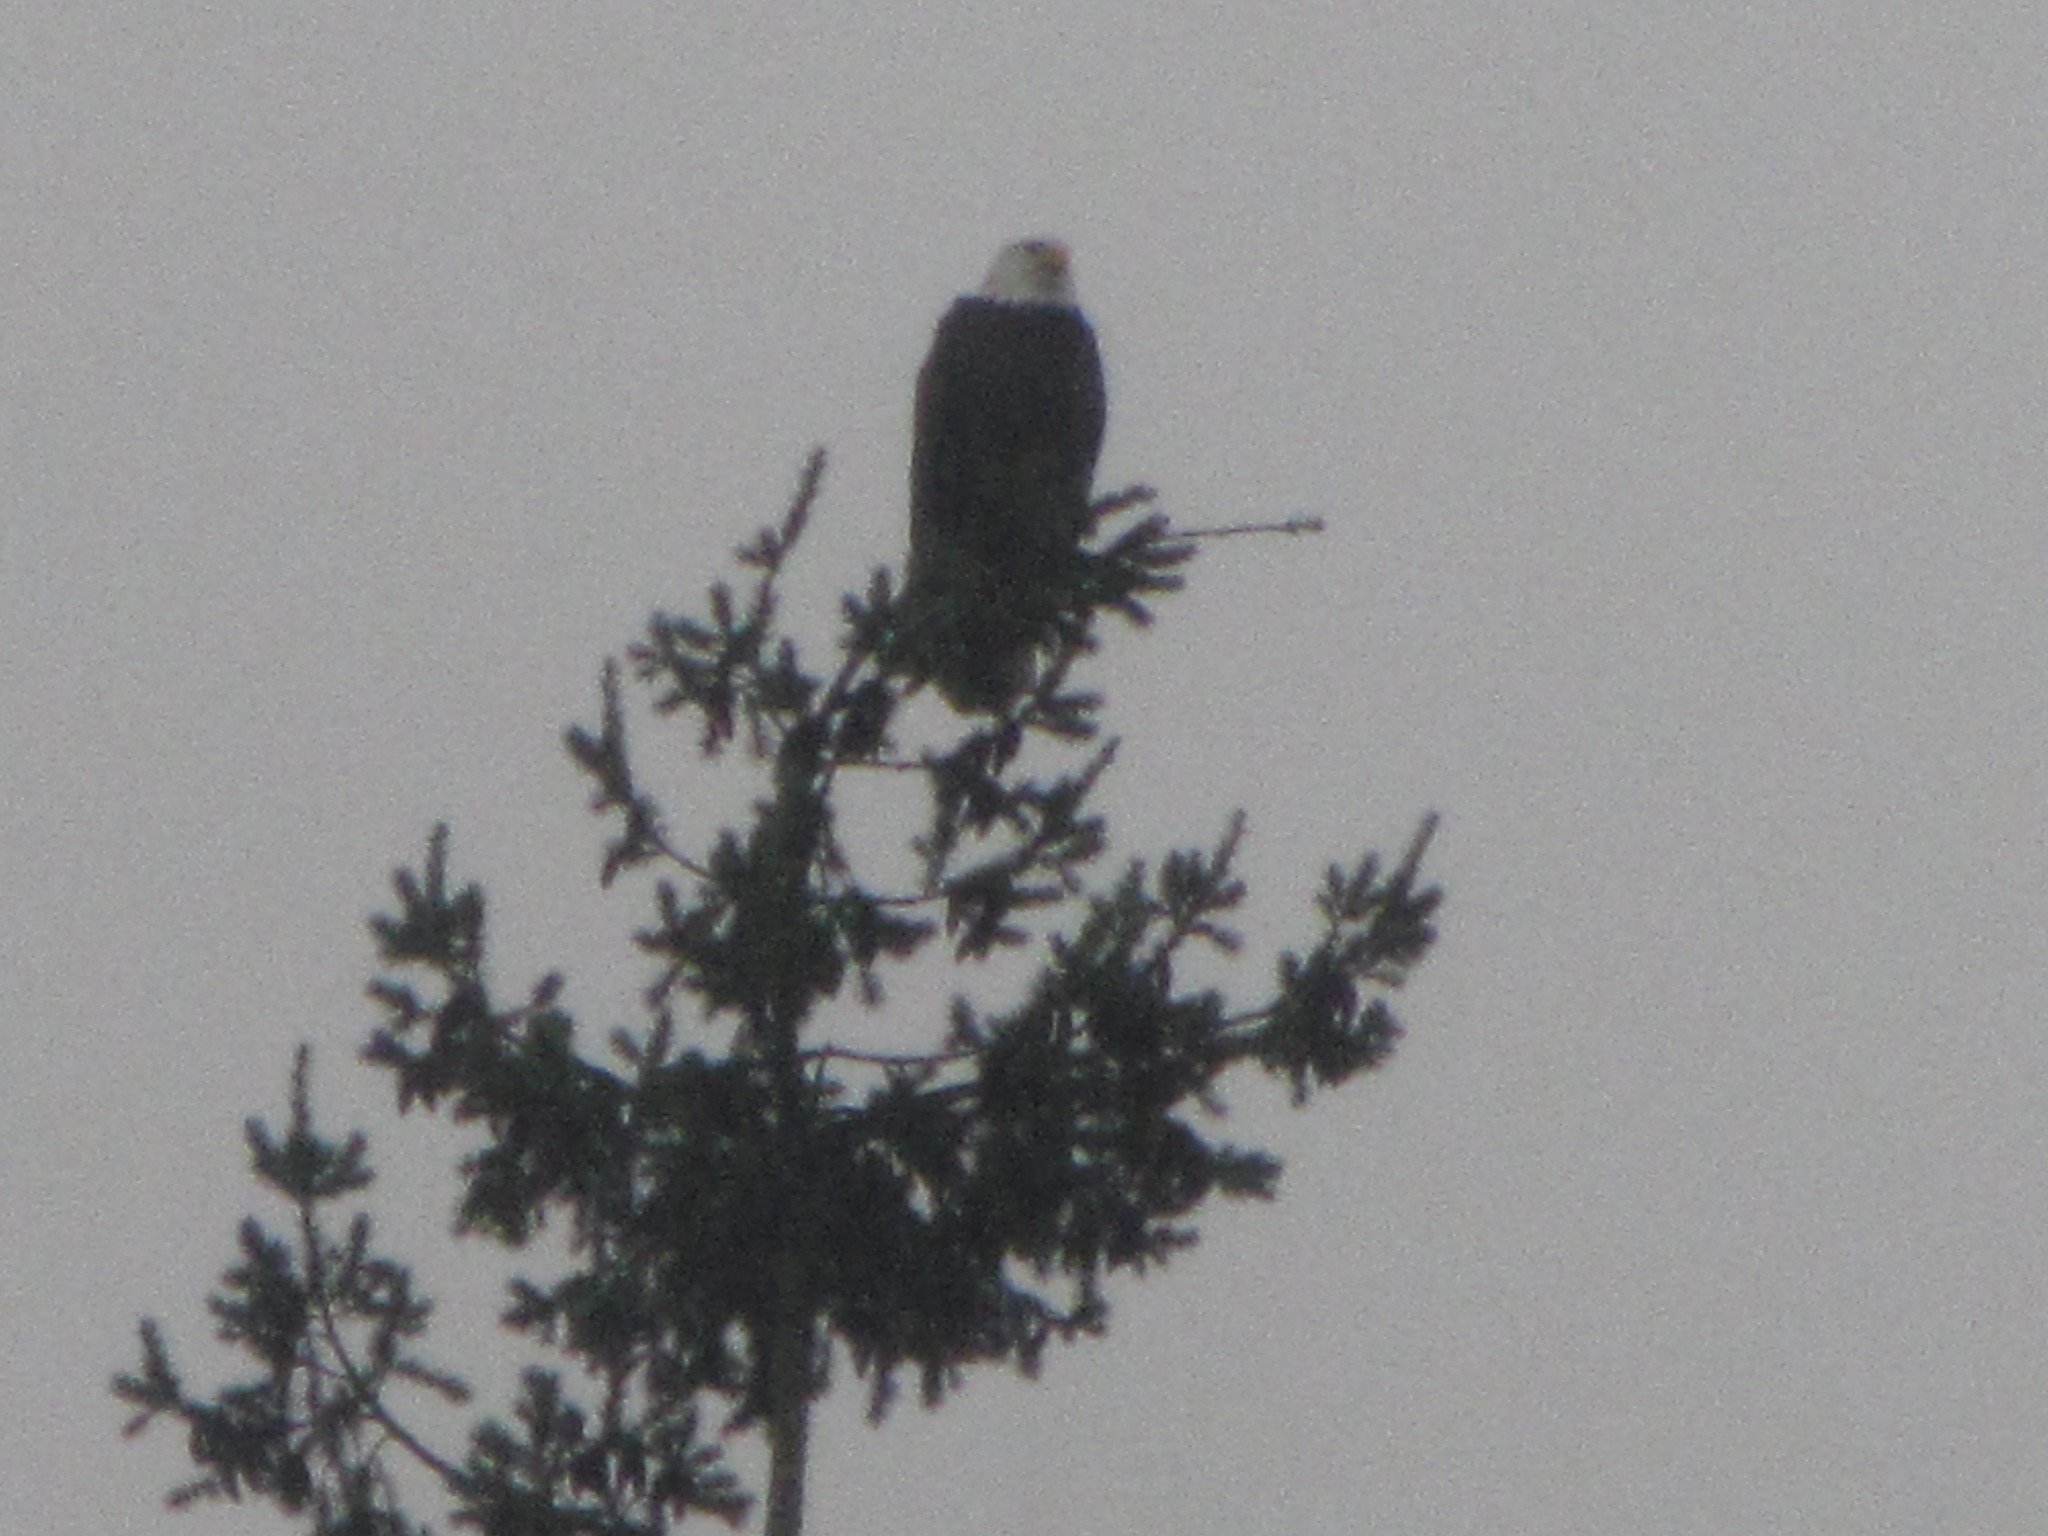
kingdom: Animalia
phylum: Chordata
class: Aves
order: Accipitriformes
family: Accipitridae
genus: Haliaeetus
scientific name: Haliaeetus leucocephalus
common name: Bald eagle
